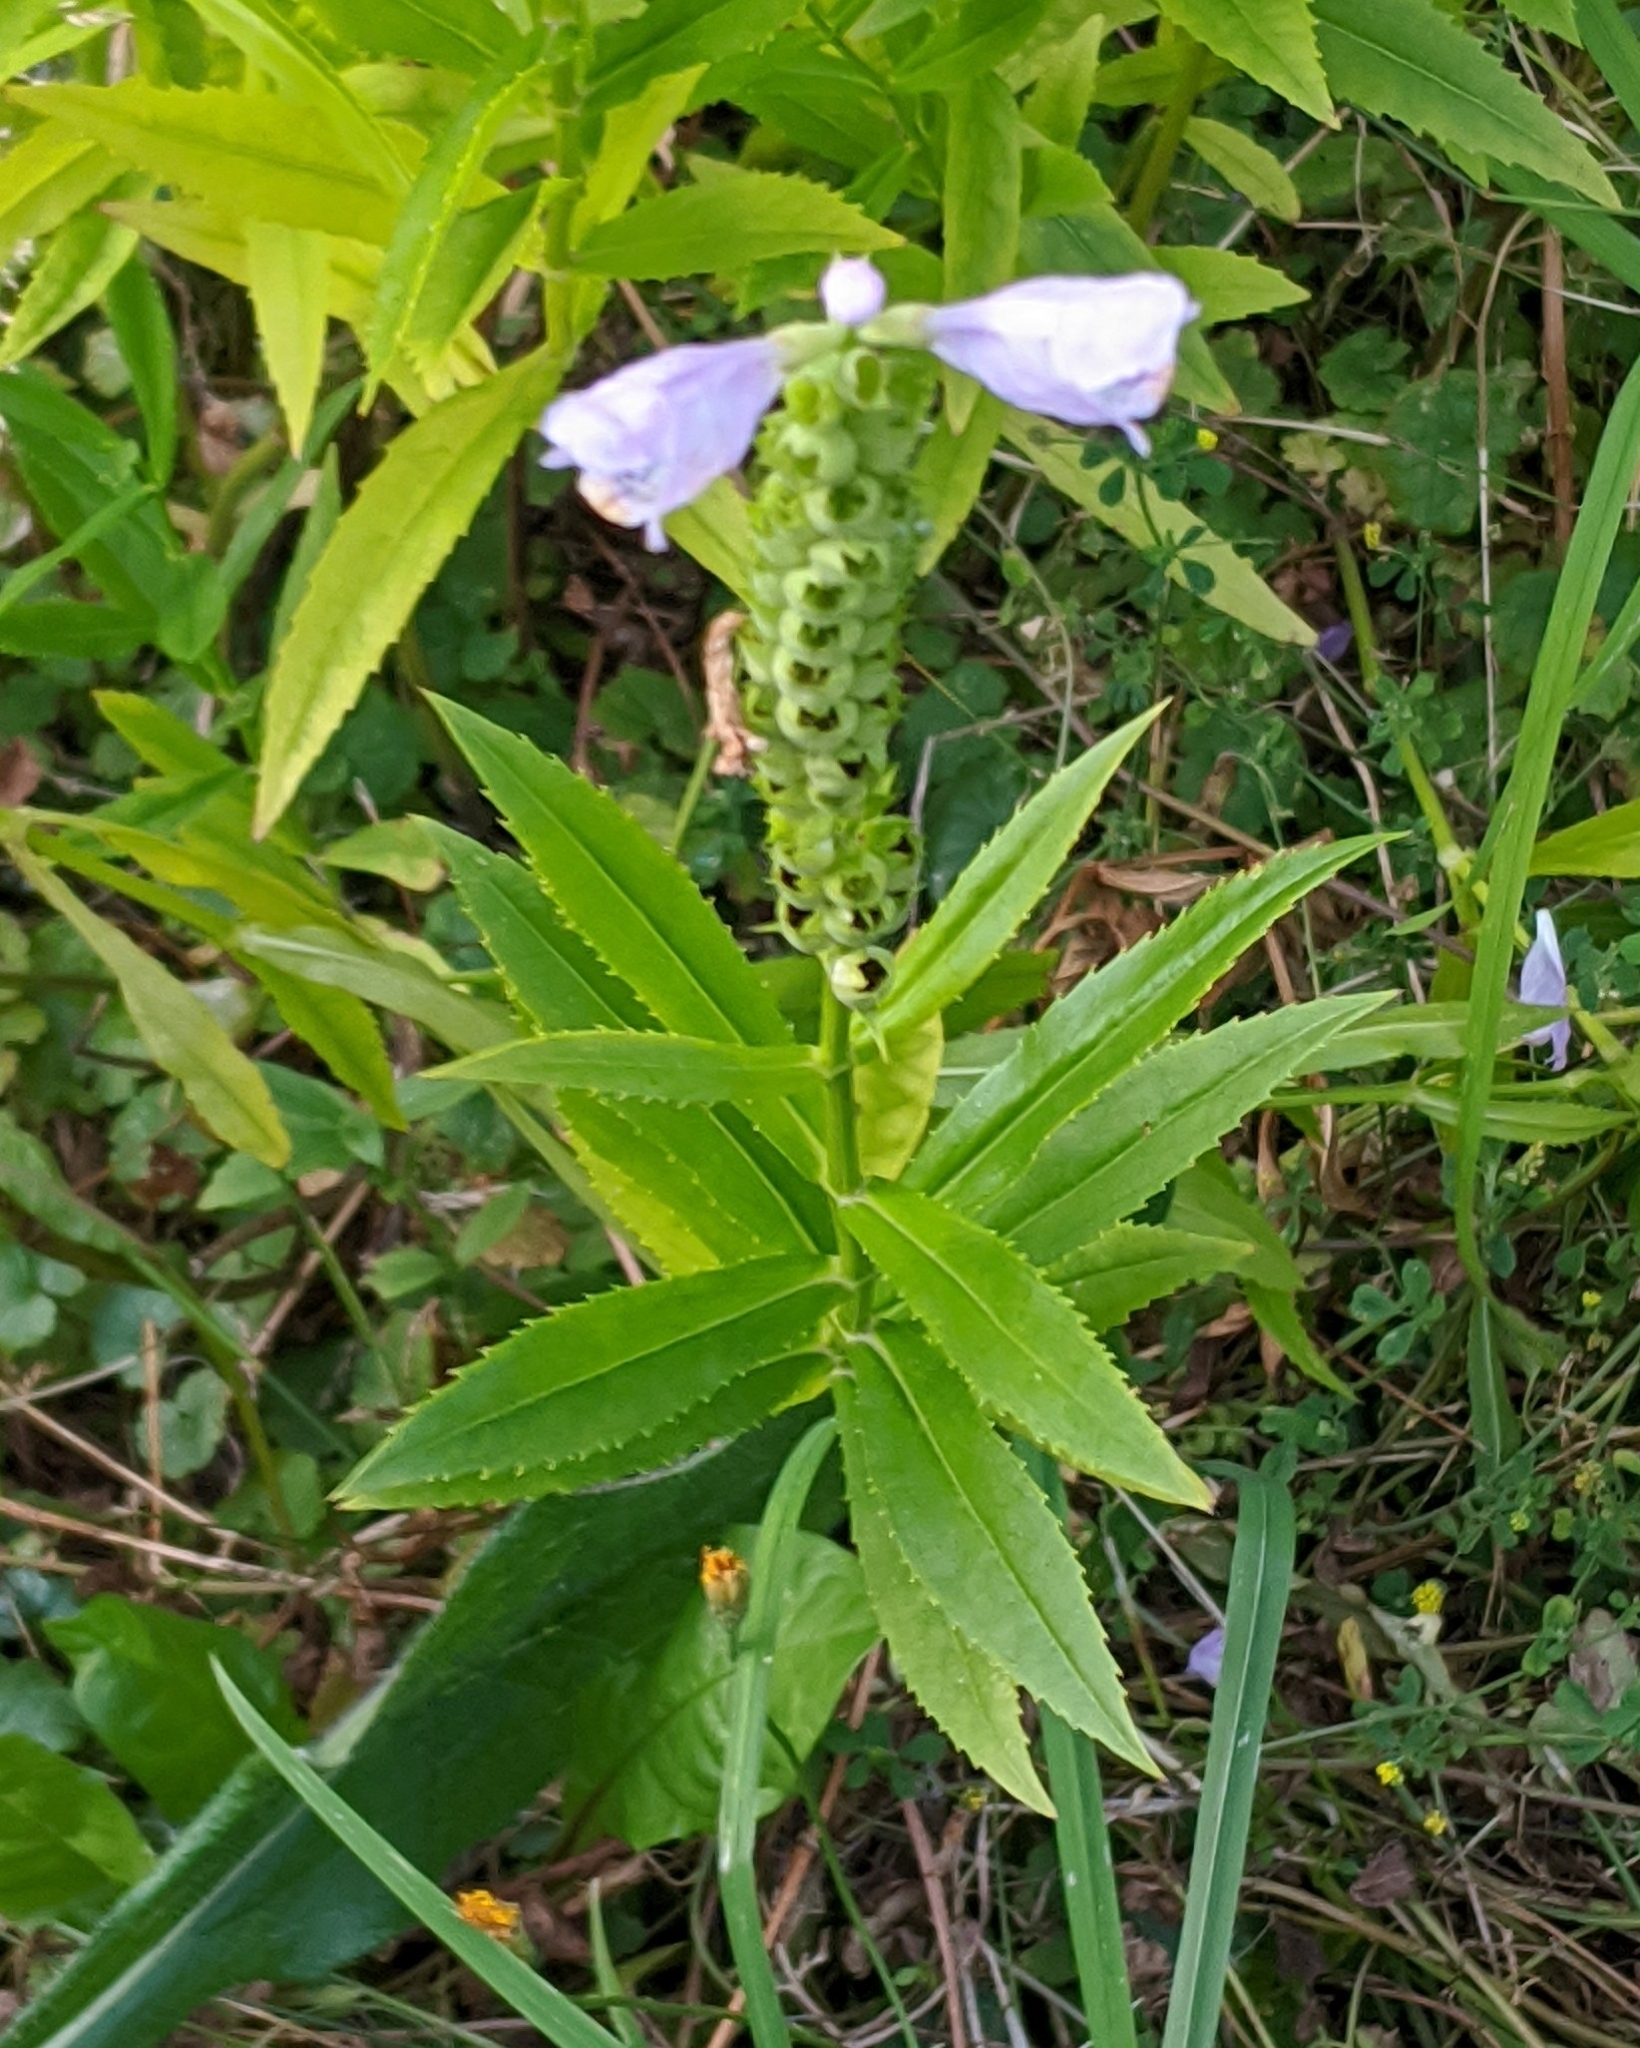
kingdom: Plantae
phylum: Tracheophyta
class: Magnoliopsida
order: Lamiales
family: Lamiaceae
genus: Physostegia
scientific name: Physostegia virginiana
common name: Obedient-plant
